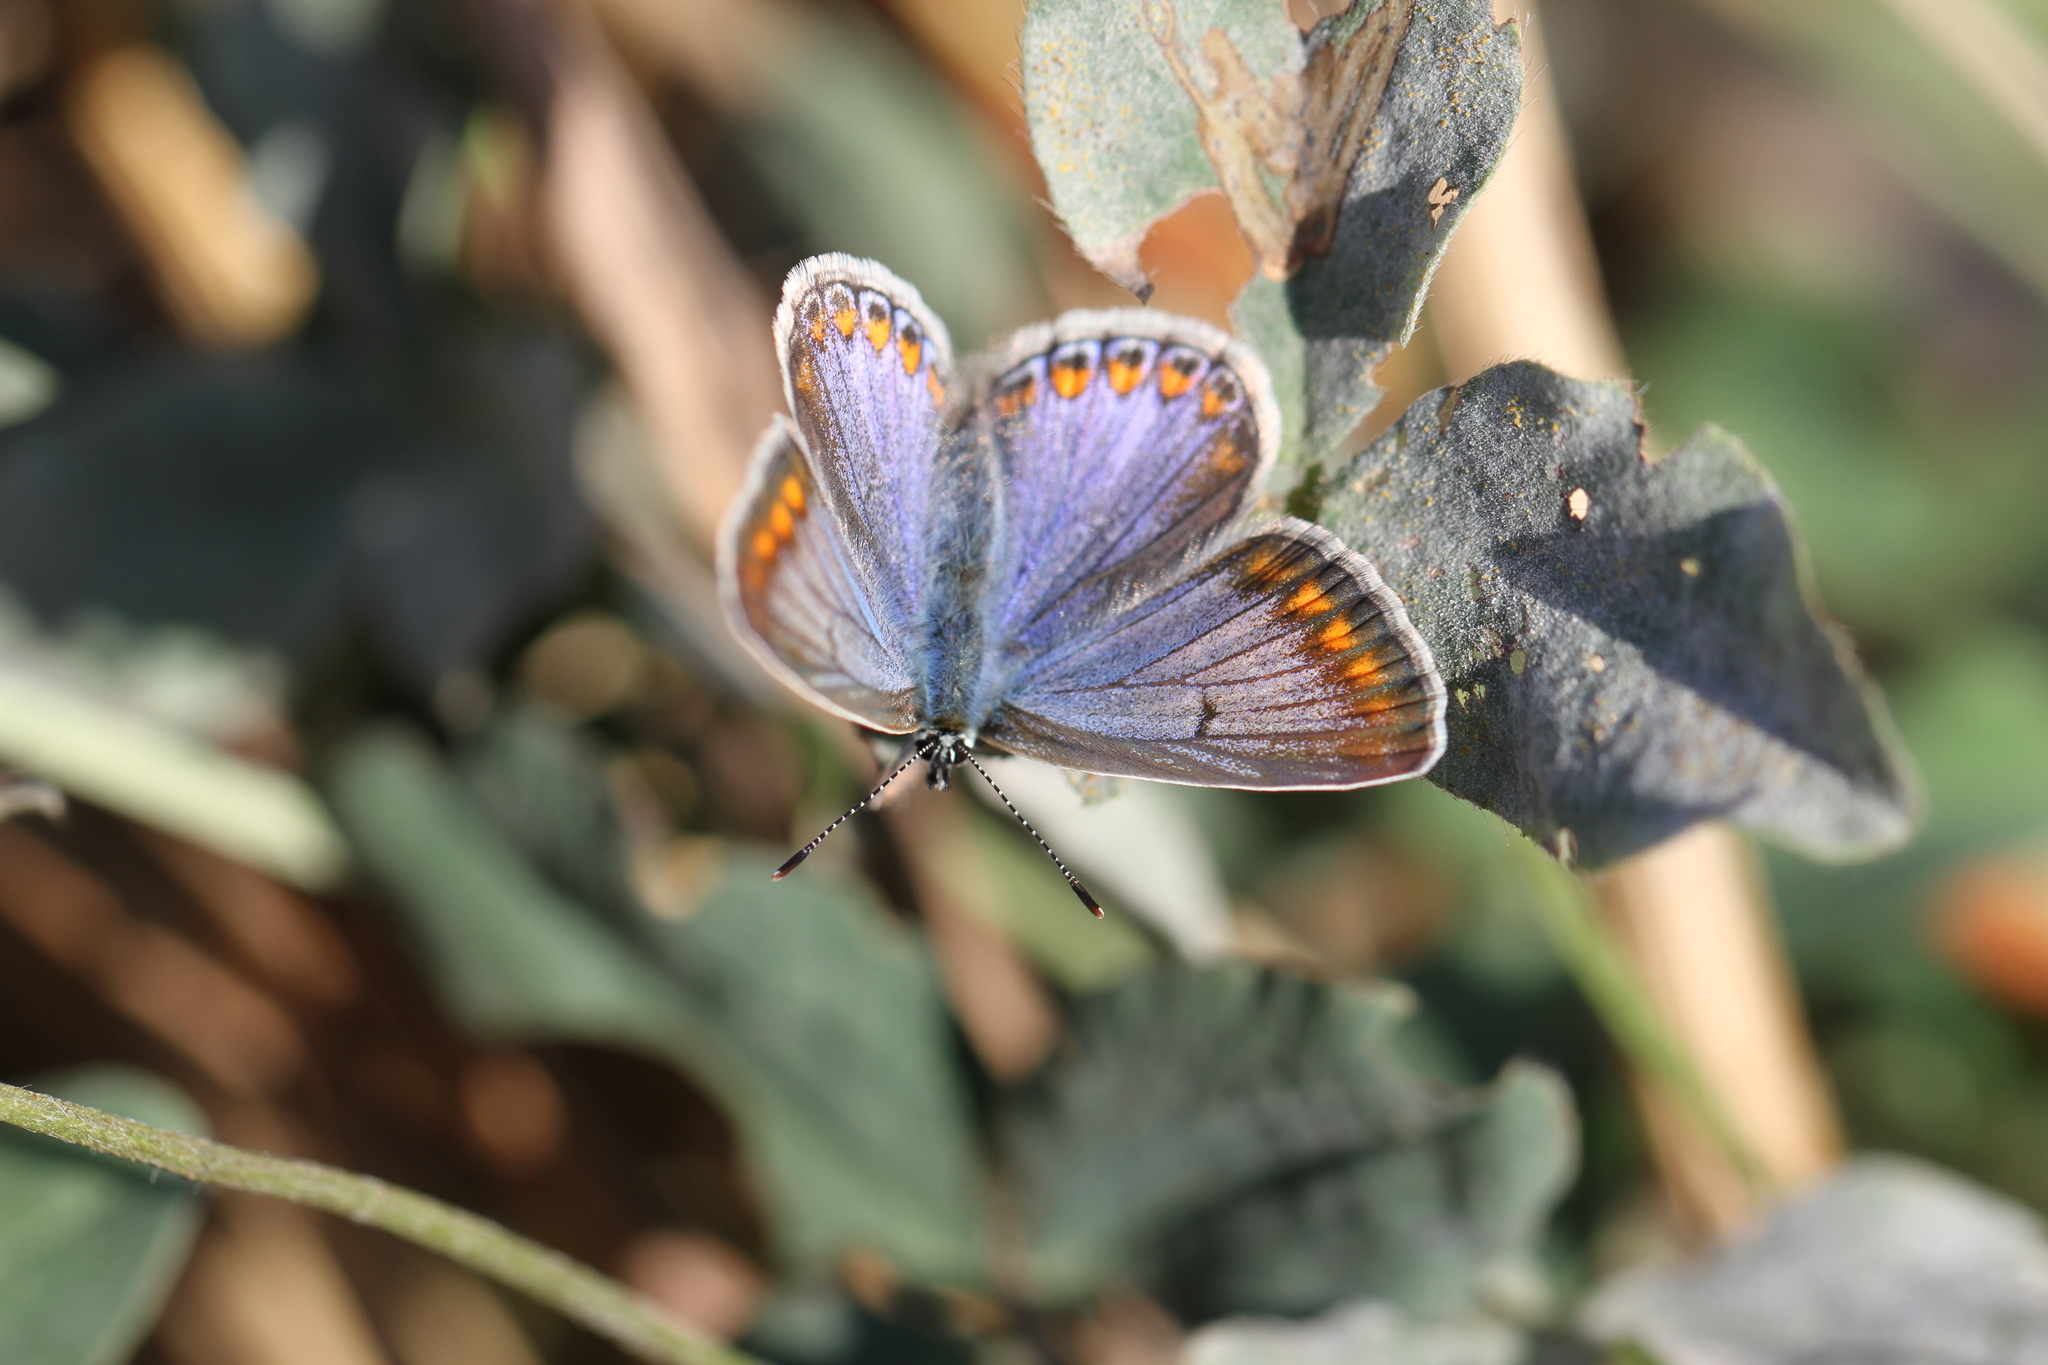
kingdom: Animalia
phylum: Arthropoda
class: Insecta
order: Lepidoptera
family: Lycaenidae
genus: Polyommatus
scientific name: Polyommatus icarus
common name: Common blue
